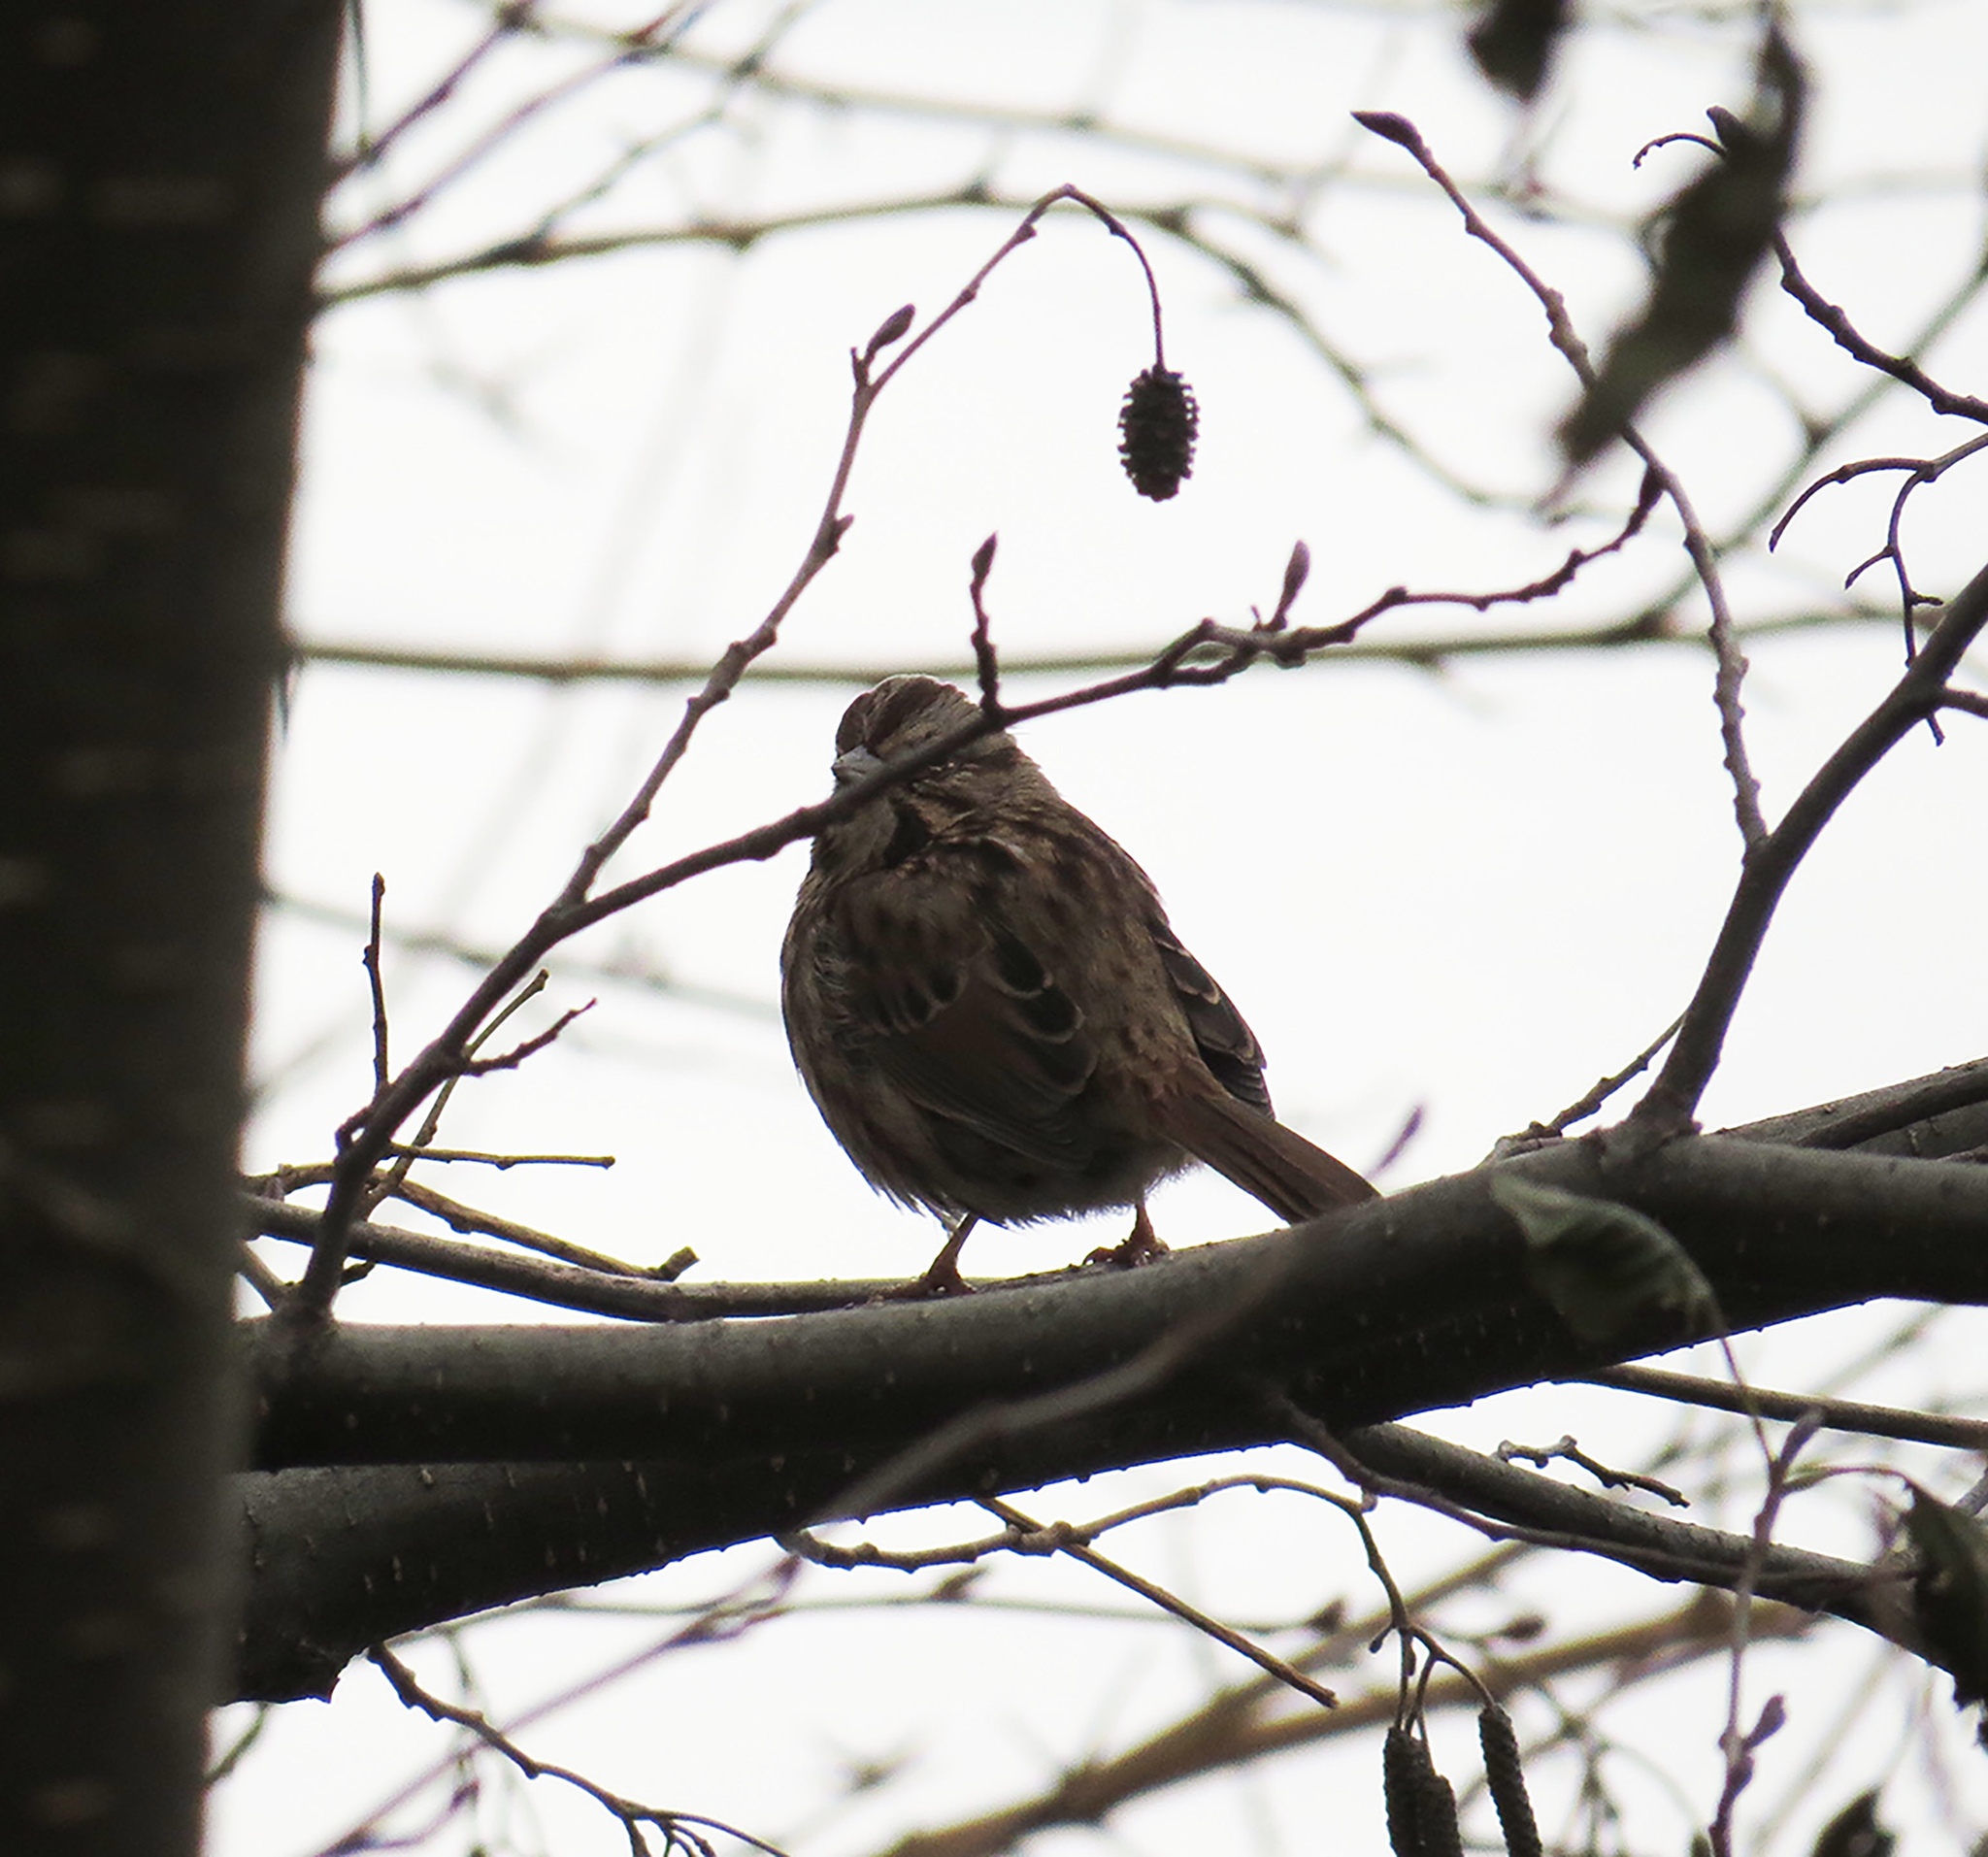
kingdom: Animalia
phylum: Chordata
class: Aves
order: Passeriformes
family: Passerellidae
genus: Melospiza
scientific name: Melospiza melodia
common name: Song sparrow
